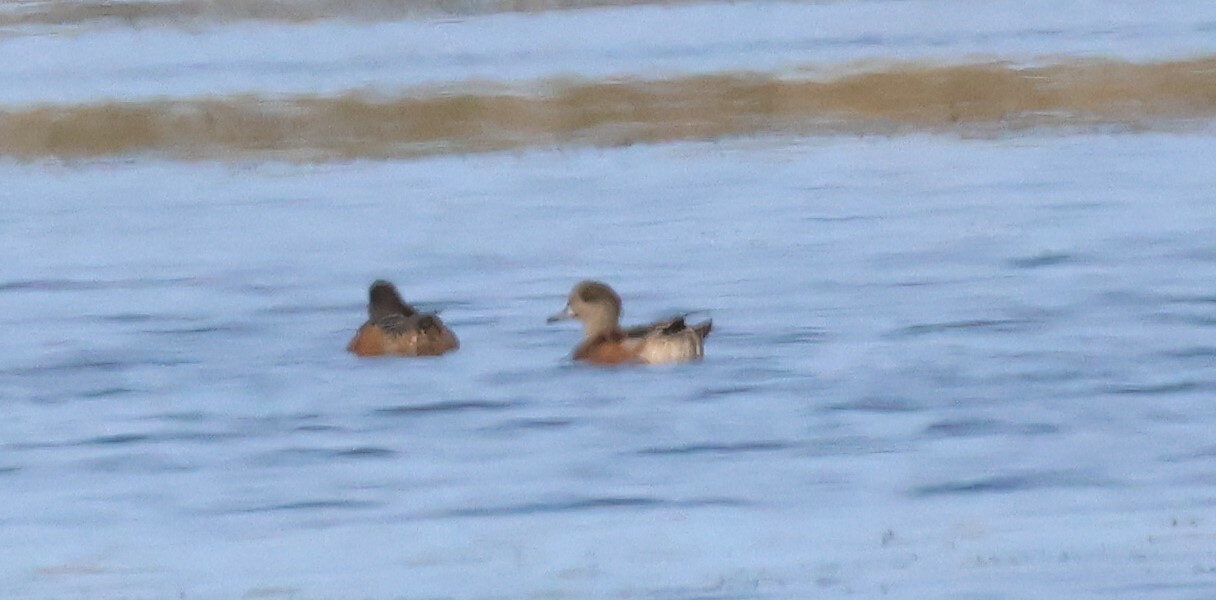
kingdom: Animalia
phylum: Chordata
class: Aves
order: Anseriformes
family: Anatidae
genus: Mareca
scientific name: Mareca americana
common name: American wigeon
